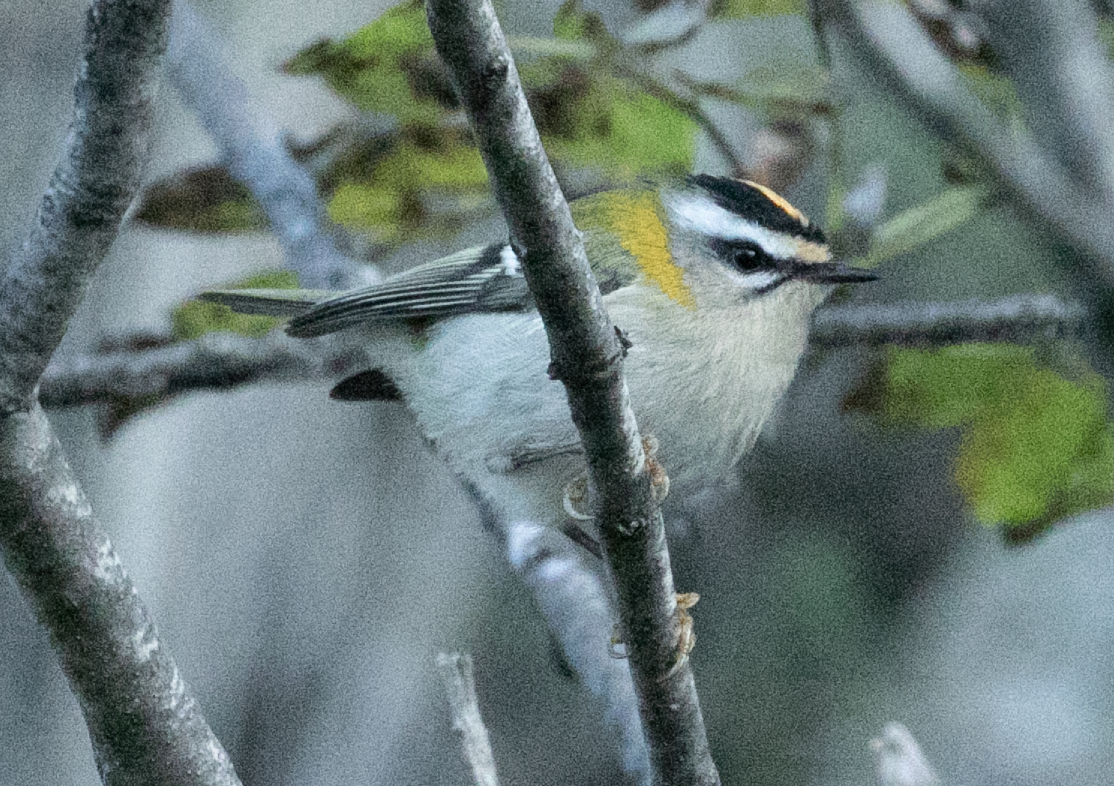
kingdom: Animalia
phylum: Chordata
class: Aves
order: Passeriformes
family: Regulidae
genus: Regulus
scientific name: Regulus ignicapilla
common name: Firecrest
